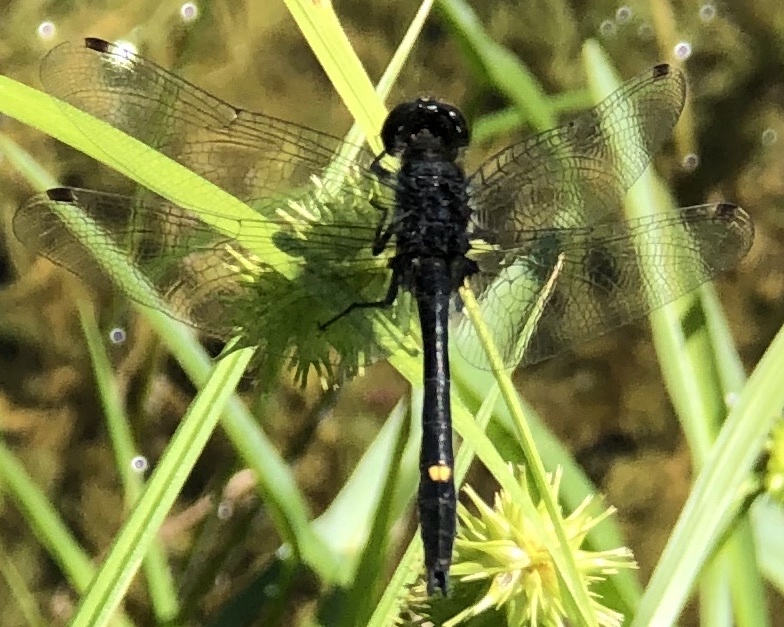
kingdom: Animalia
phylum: Arthropoda
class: Insecta
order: Odonata
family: Libellulidae
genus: Leucorrhinia
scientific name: Leucorrhinia intacta
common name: Dot-tailed whiteface
